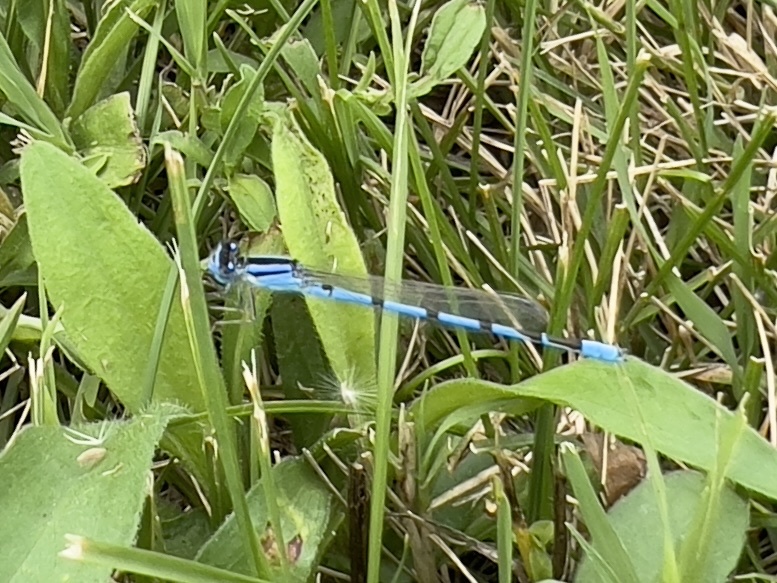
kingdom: Animalia
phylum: Arthropoda
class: Insecta
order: Odonata
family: Coenagrionidae
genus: Enallagma
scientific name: Enallagma civile
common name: Damselfly
